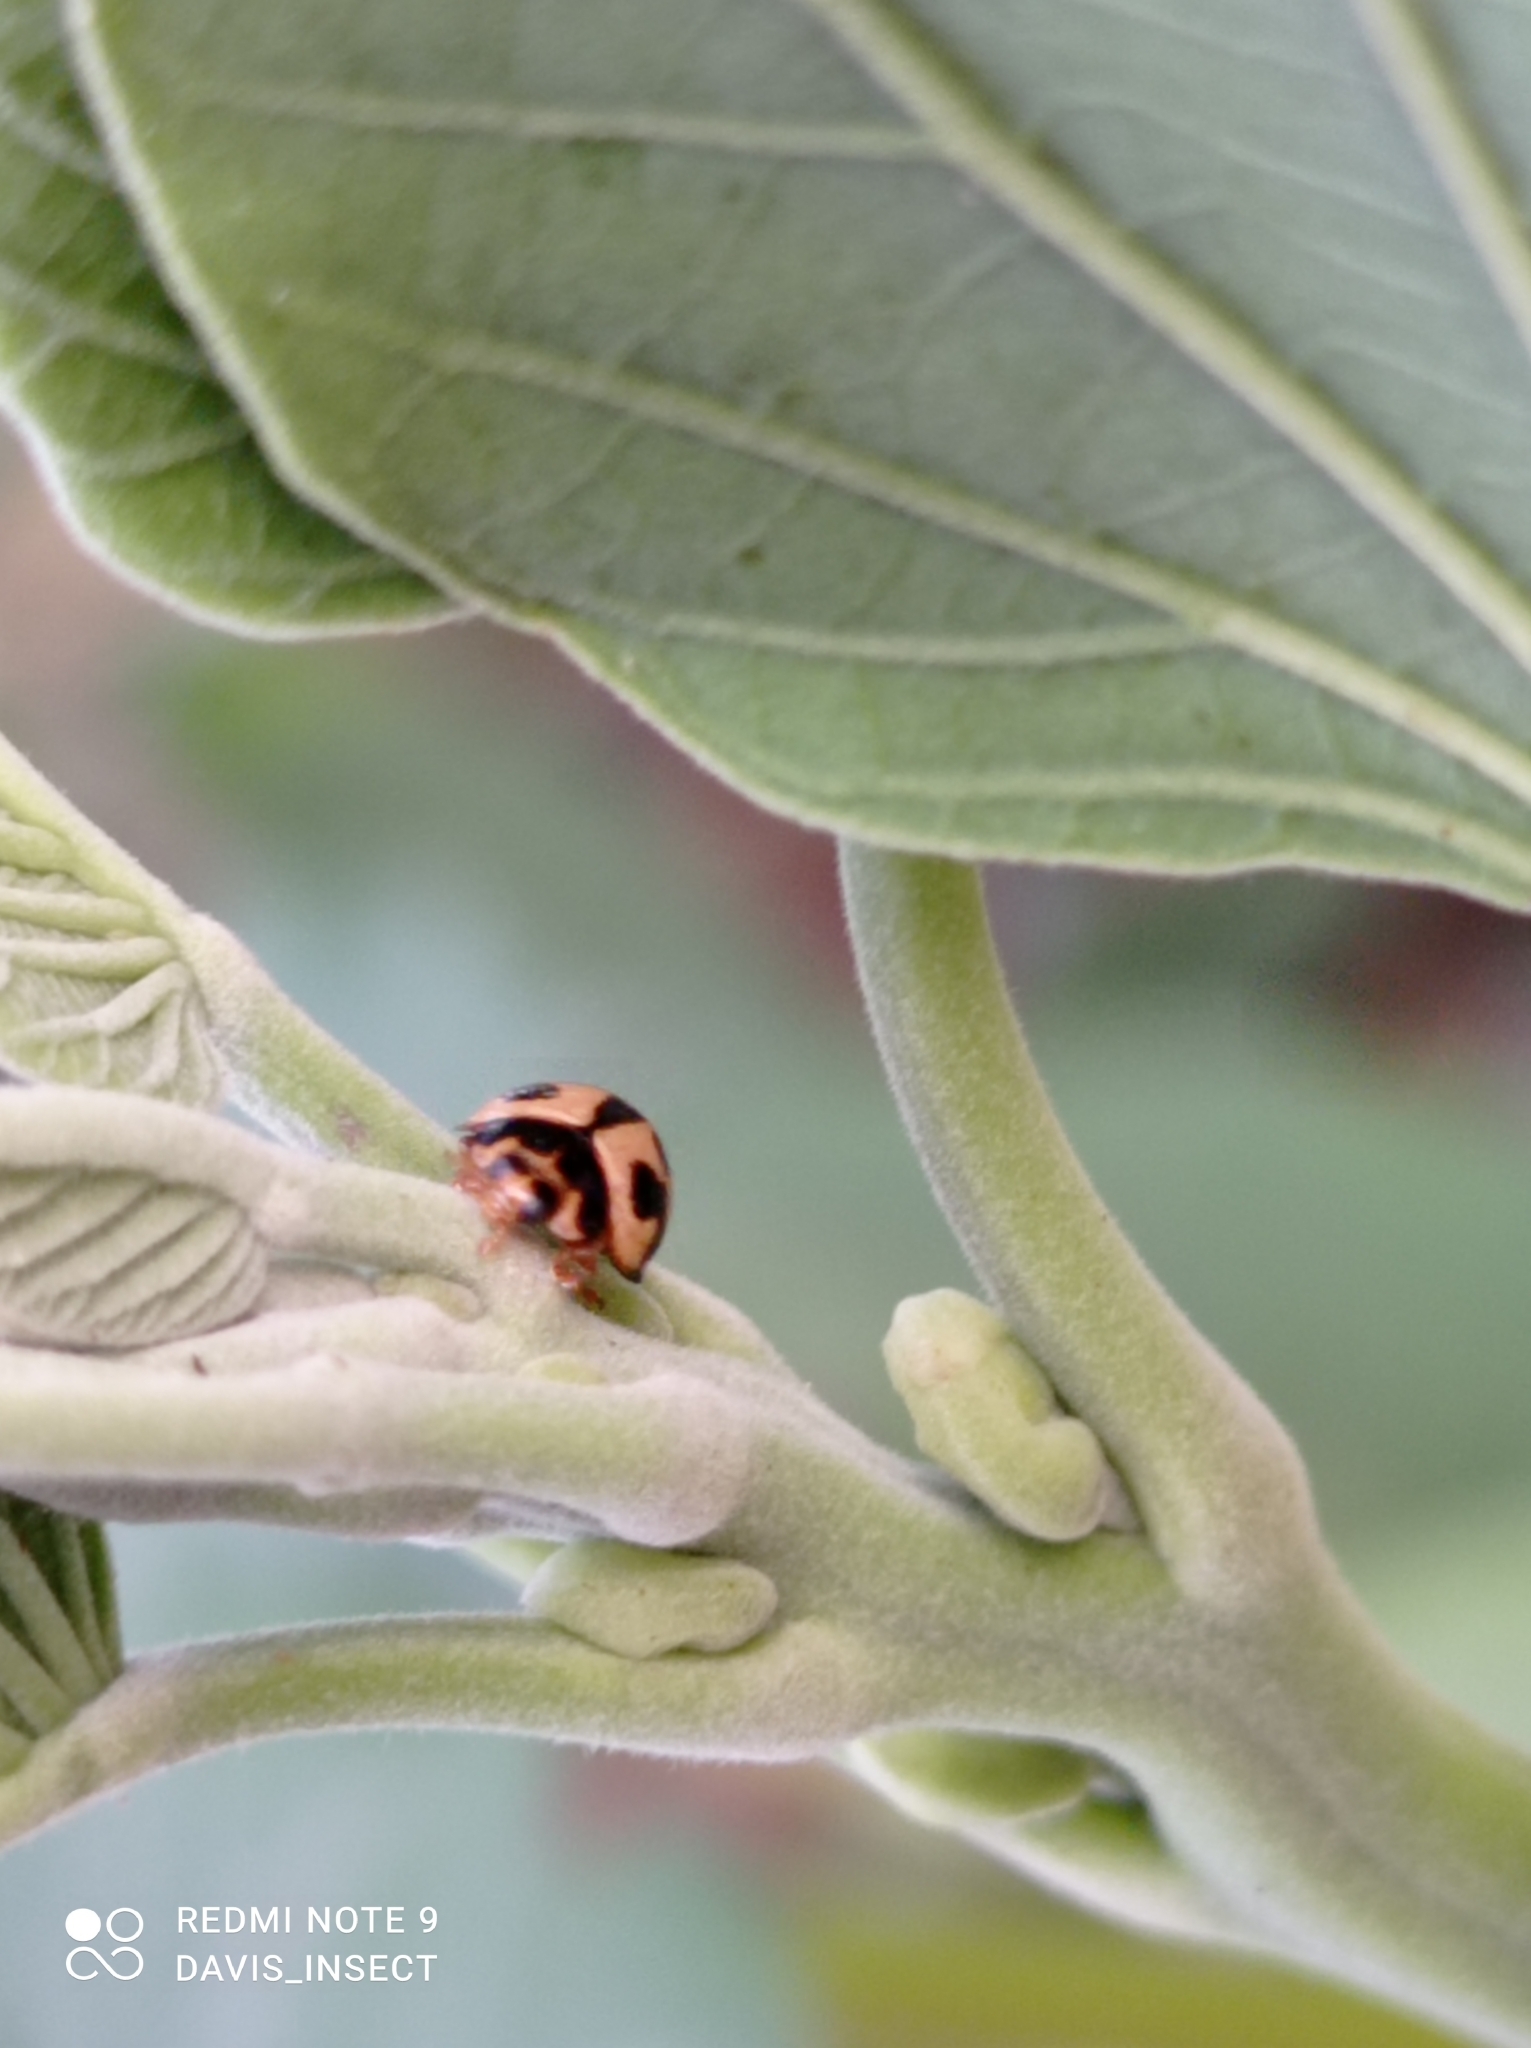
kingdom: Animalia
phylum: Arthropoda
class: Insecta
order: Coleoptera
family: Coccinellidae
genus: Coelophora
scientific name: Coelophora inaequalis
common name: Common australian lady beetle
